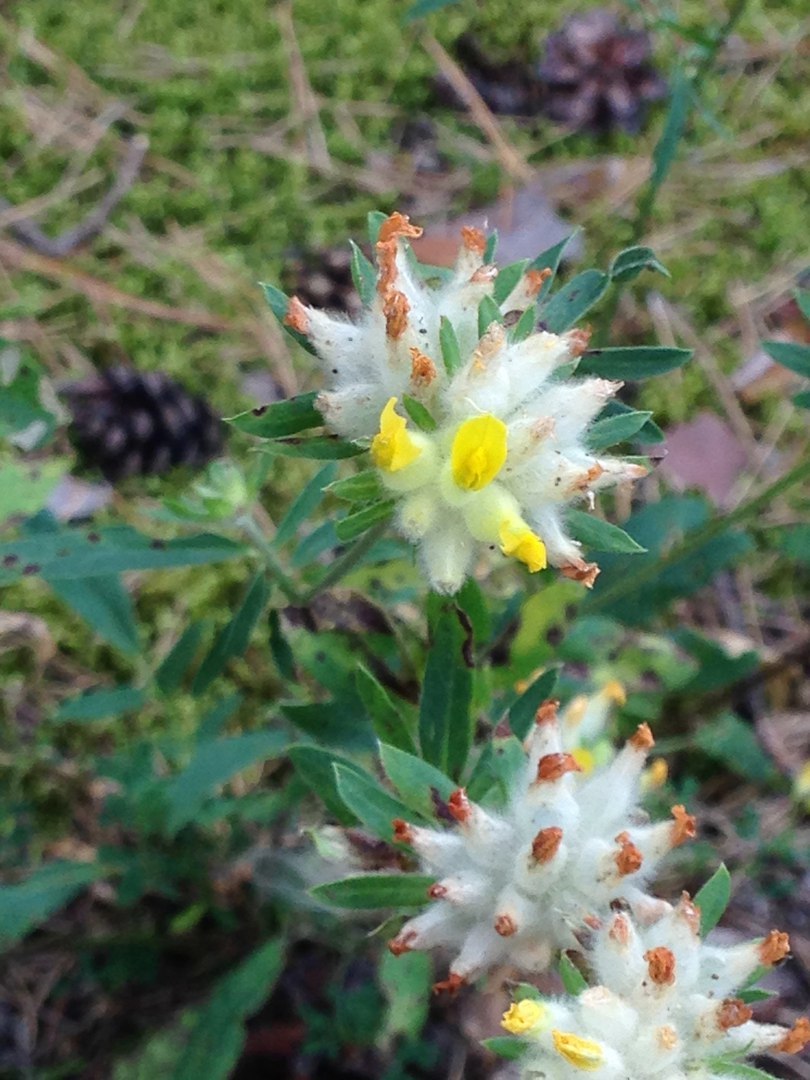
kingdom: Plantae
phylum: Tracheophyta
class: Magnoliopsida
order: Fabales
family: Fabaceae
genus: Anthyllis
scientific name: Anthyllis vulneraria
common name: Kidney vetch
